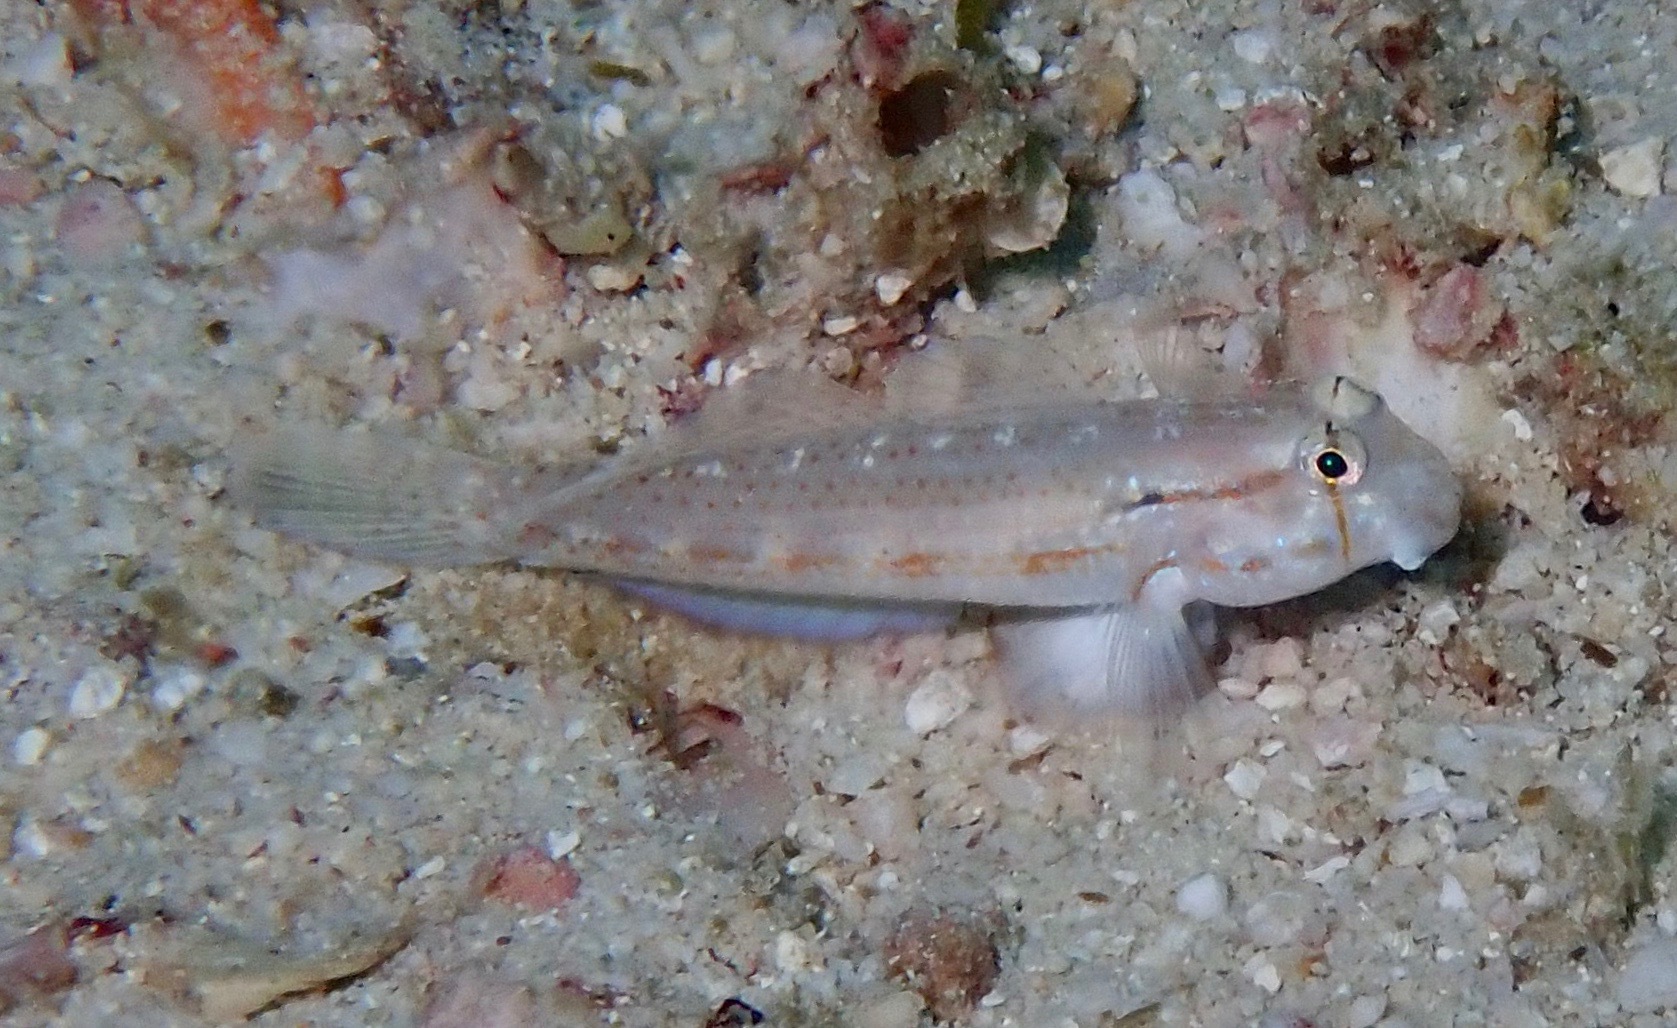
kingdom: Animalia
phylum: Chordata
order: Perciformes
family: Gobiidae
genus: Gnatholepis
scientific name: Gnatholepis cauerensis
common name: Bridled goby
